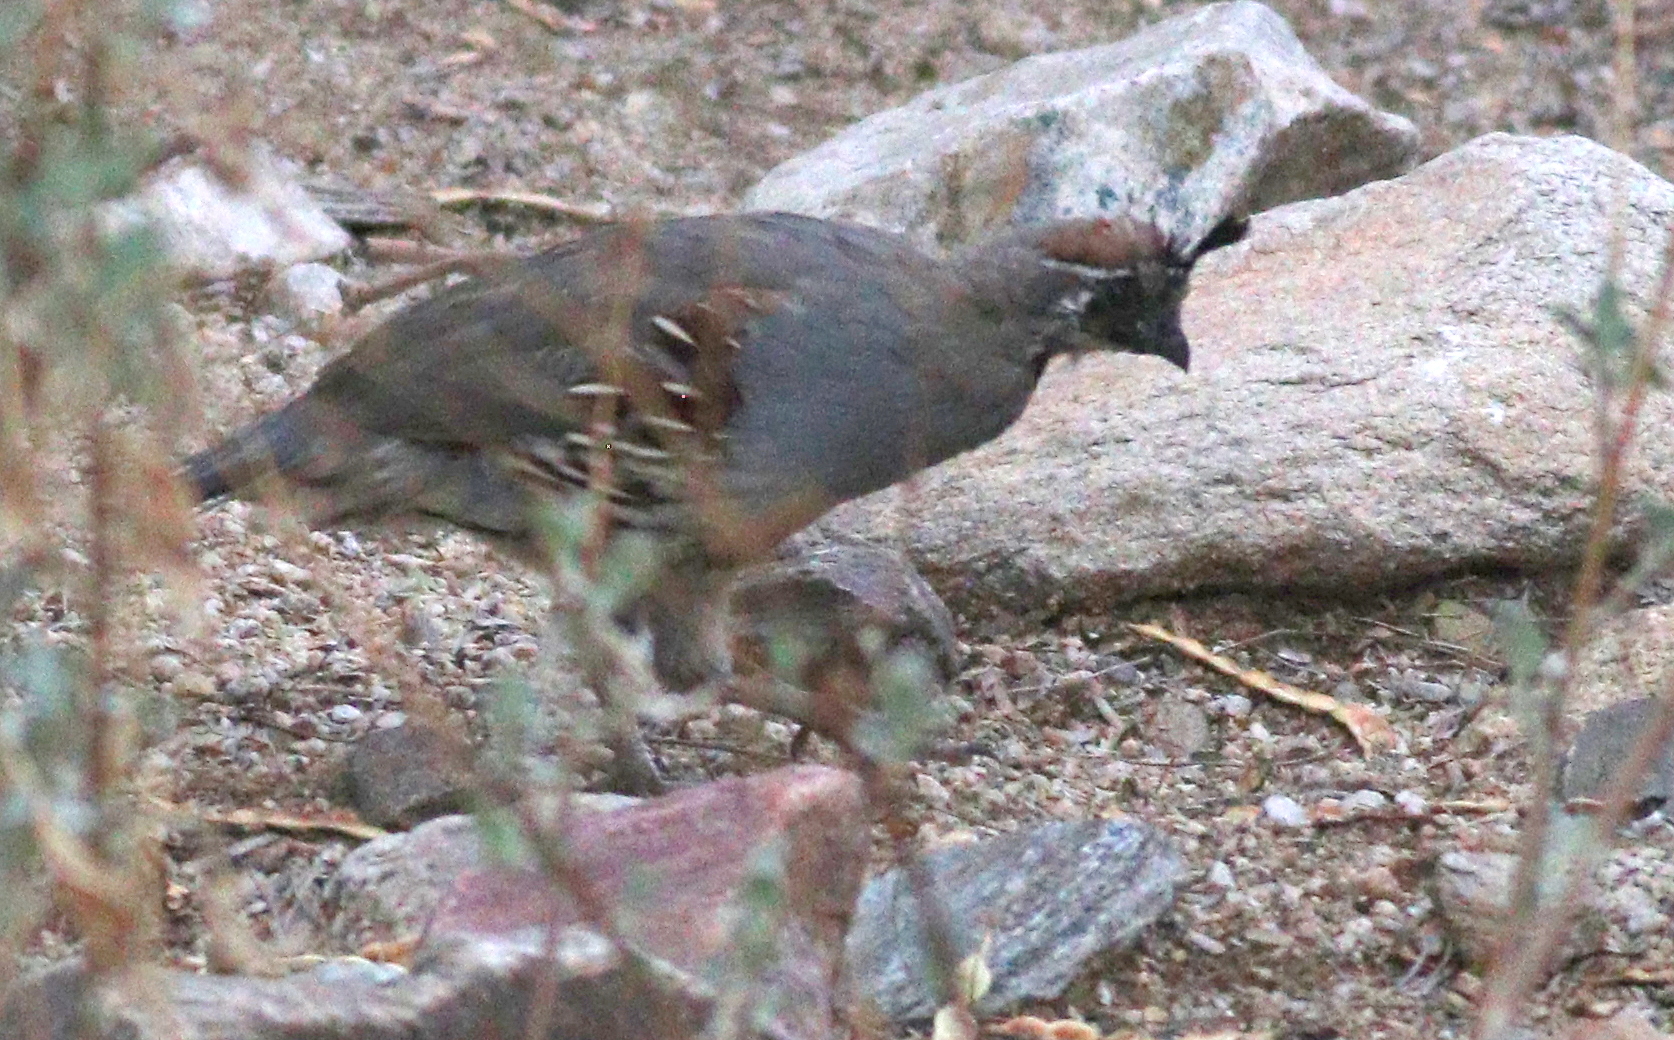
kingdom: Animalia
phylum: Chordata
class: Aves
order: Galliformes
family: Odontophoridae
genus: Callipepla
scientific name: Callipepla gambelii
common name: Gambel's quail
